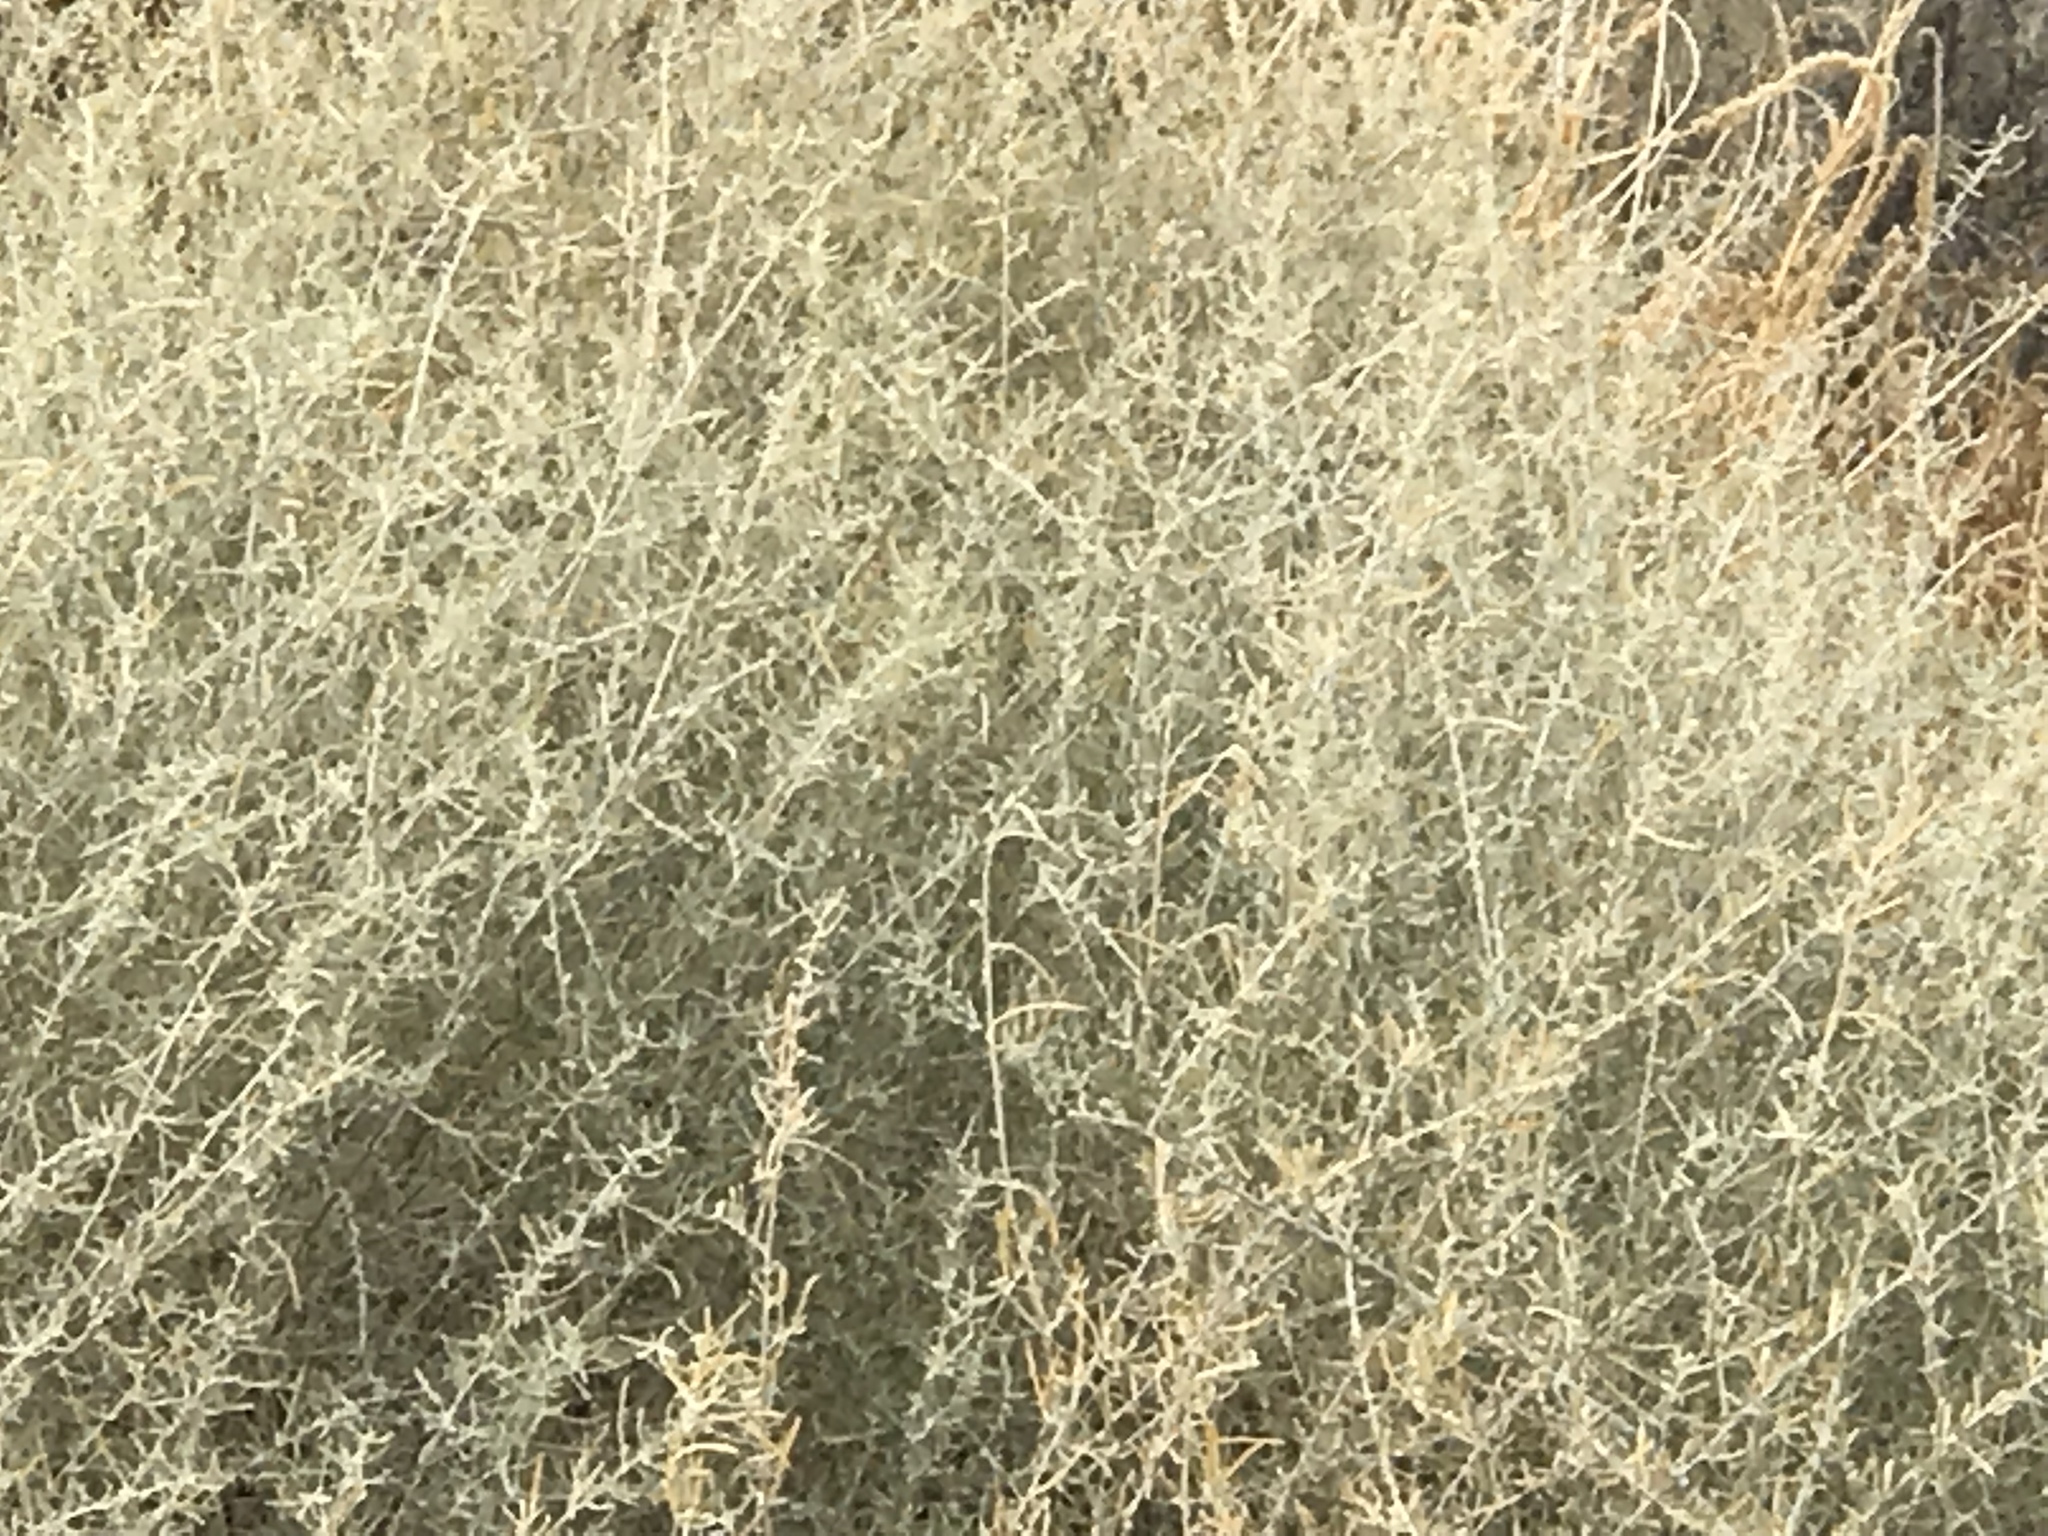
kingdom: Plantae
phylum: Tracheophyta
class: Magnoliopsida
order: Caryophyllales
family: Amaranthaceae
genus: Atriplex
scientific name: Atriplex canescens
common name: Four-wing saltbush
